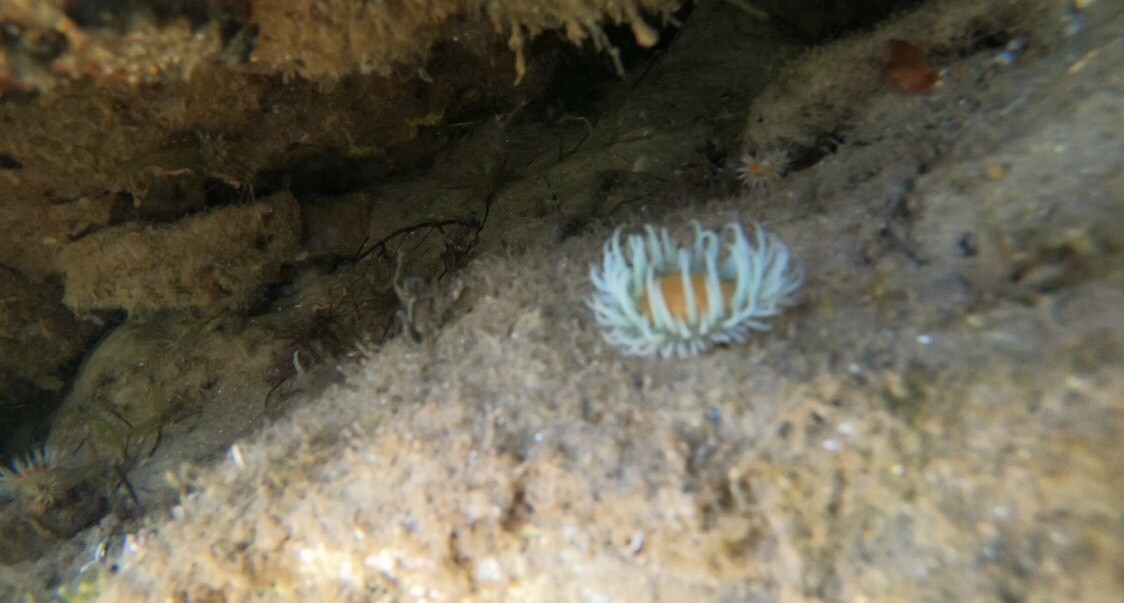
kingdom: Animalia
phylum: Cnidaria
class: Anthozoa
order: Actiniaria
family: Sagartiidae
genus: Anthothoe
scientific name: Anthothoe albocincta
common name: Orange striped anemone
